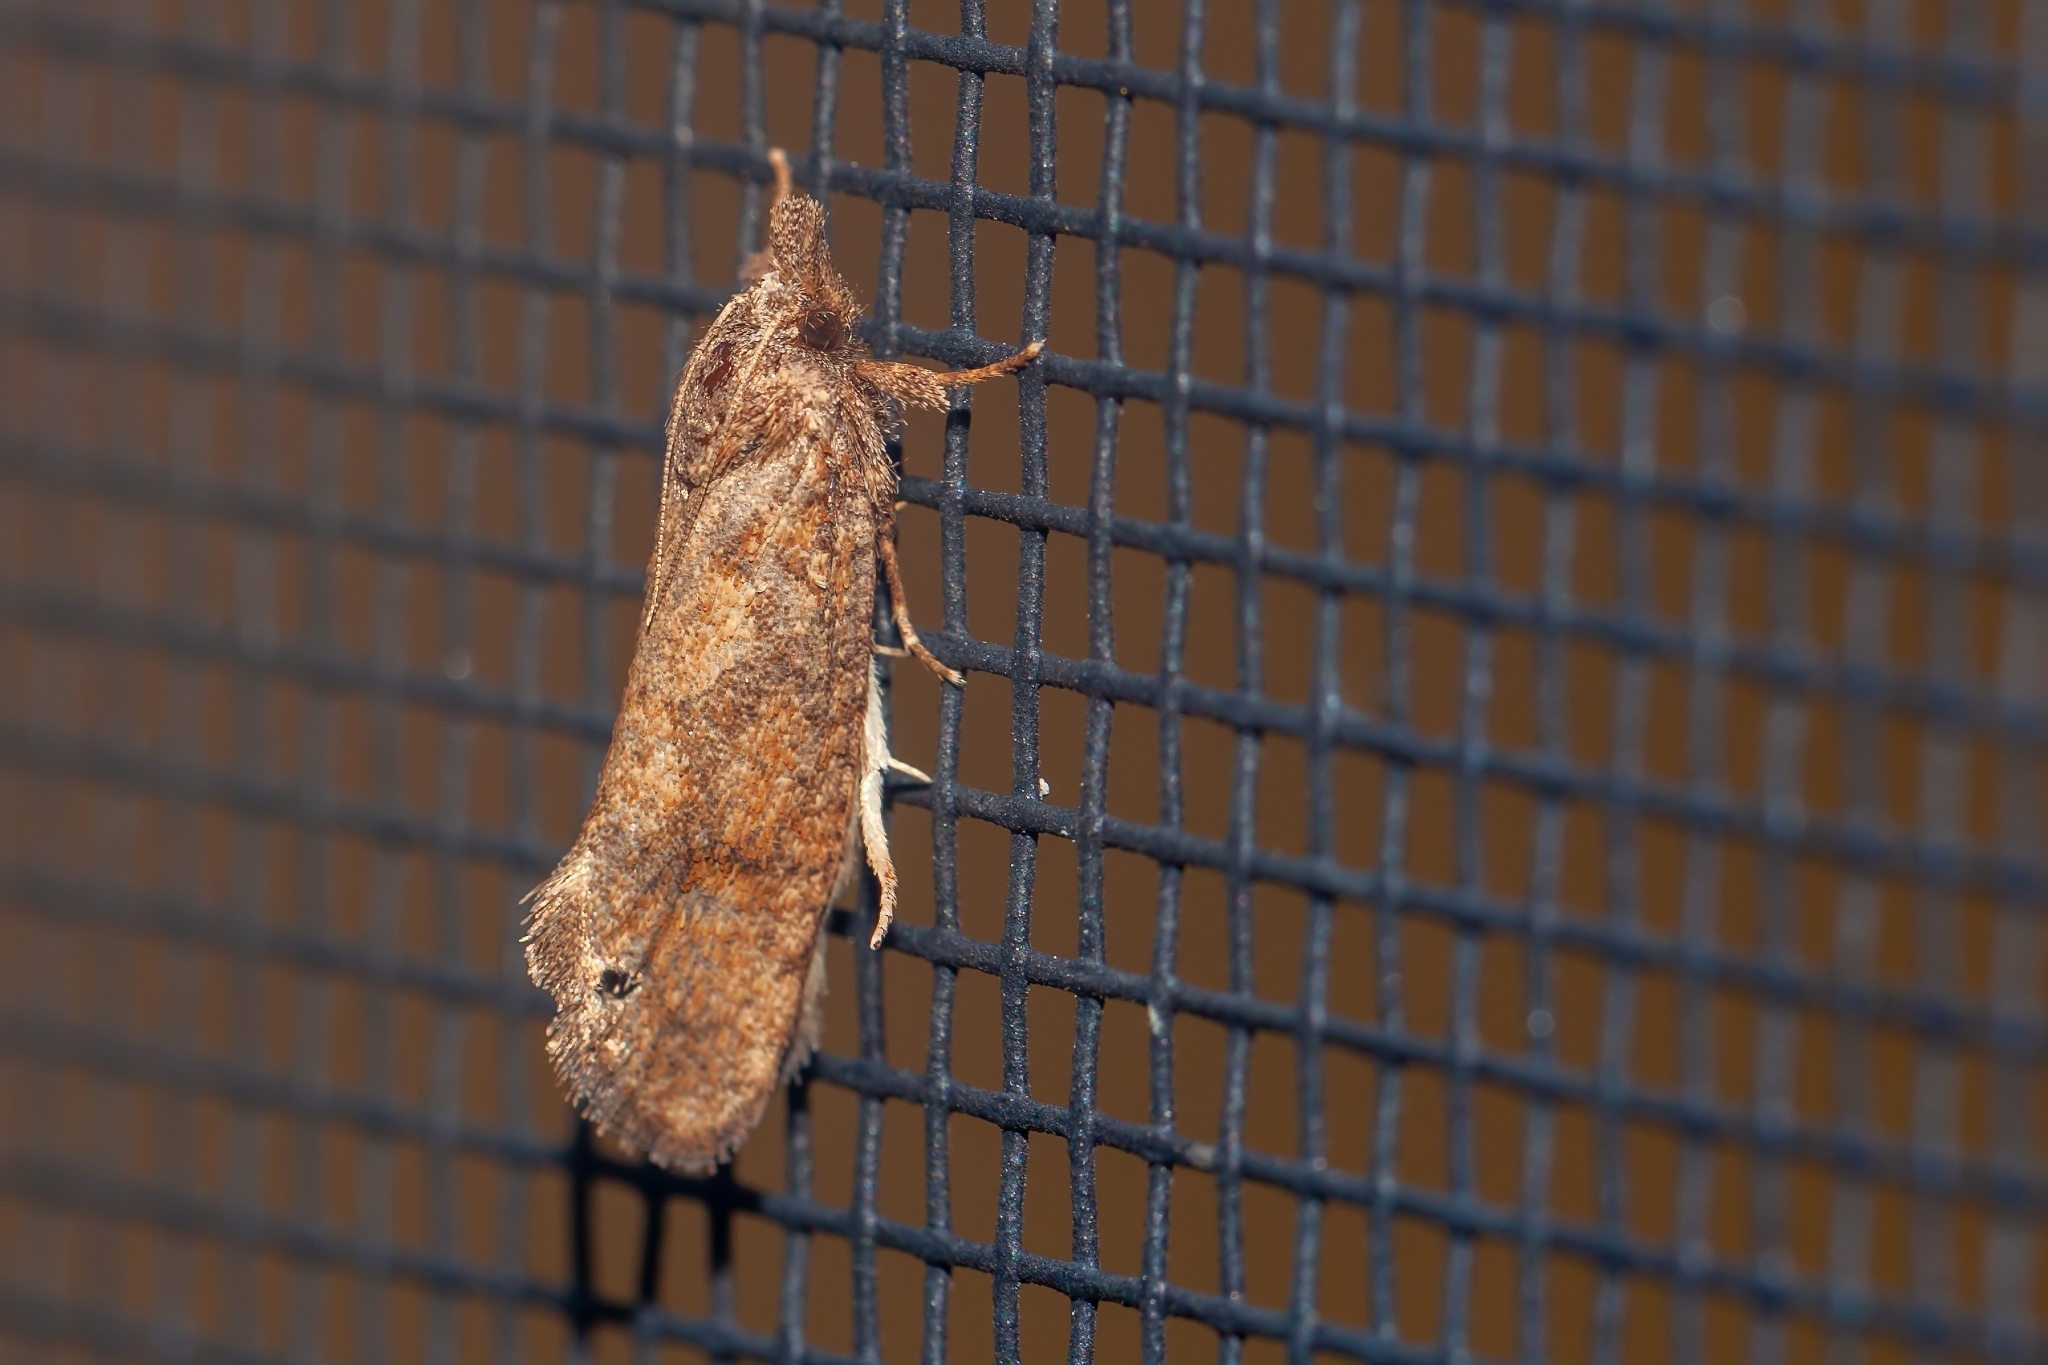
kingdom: Animalia
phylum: Arthropoda
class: Insecta
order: Lepidoptera
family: Tineidae
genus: Acrolophus
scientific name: Acrolophus walsinghami
